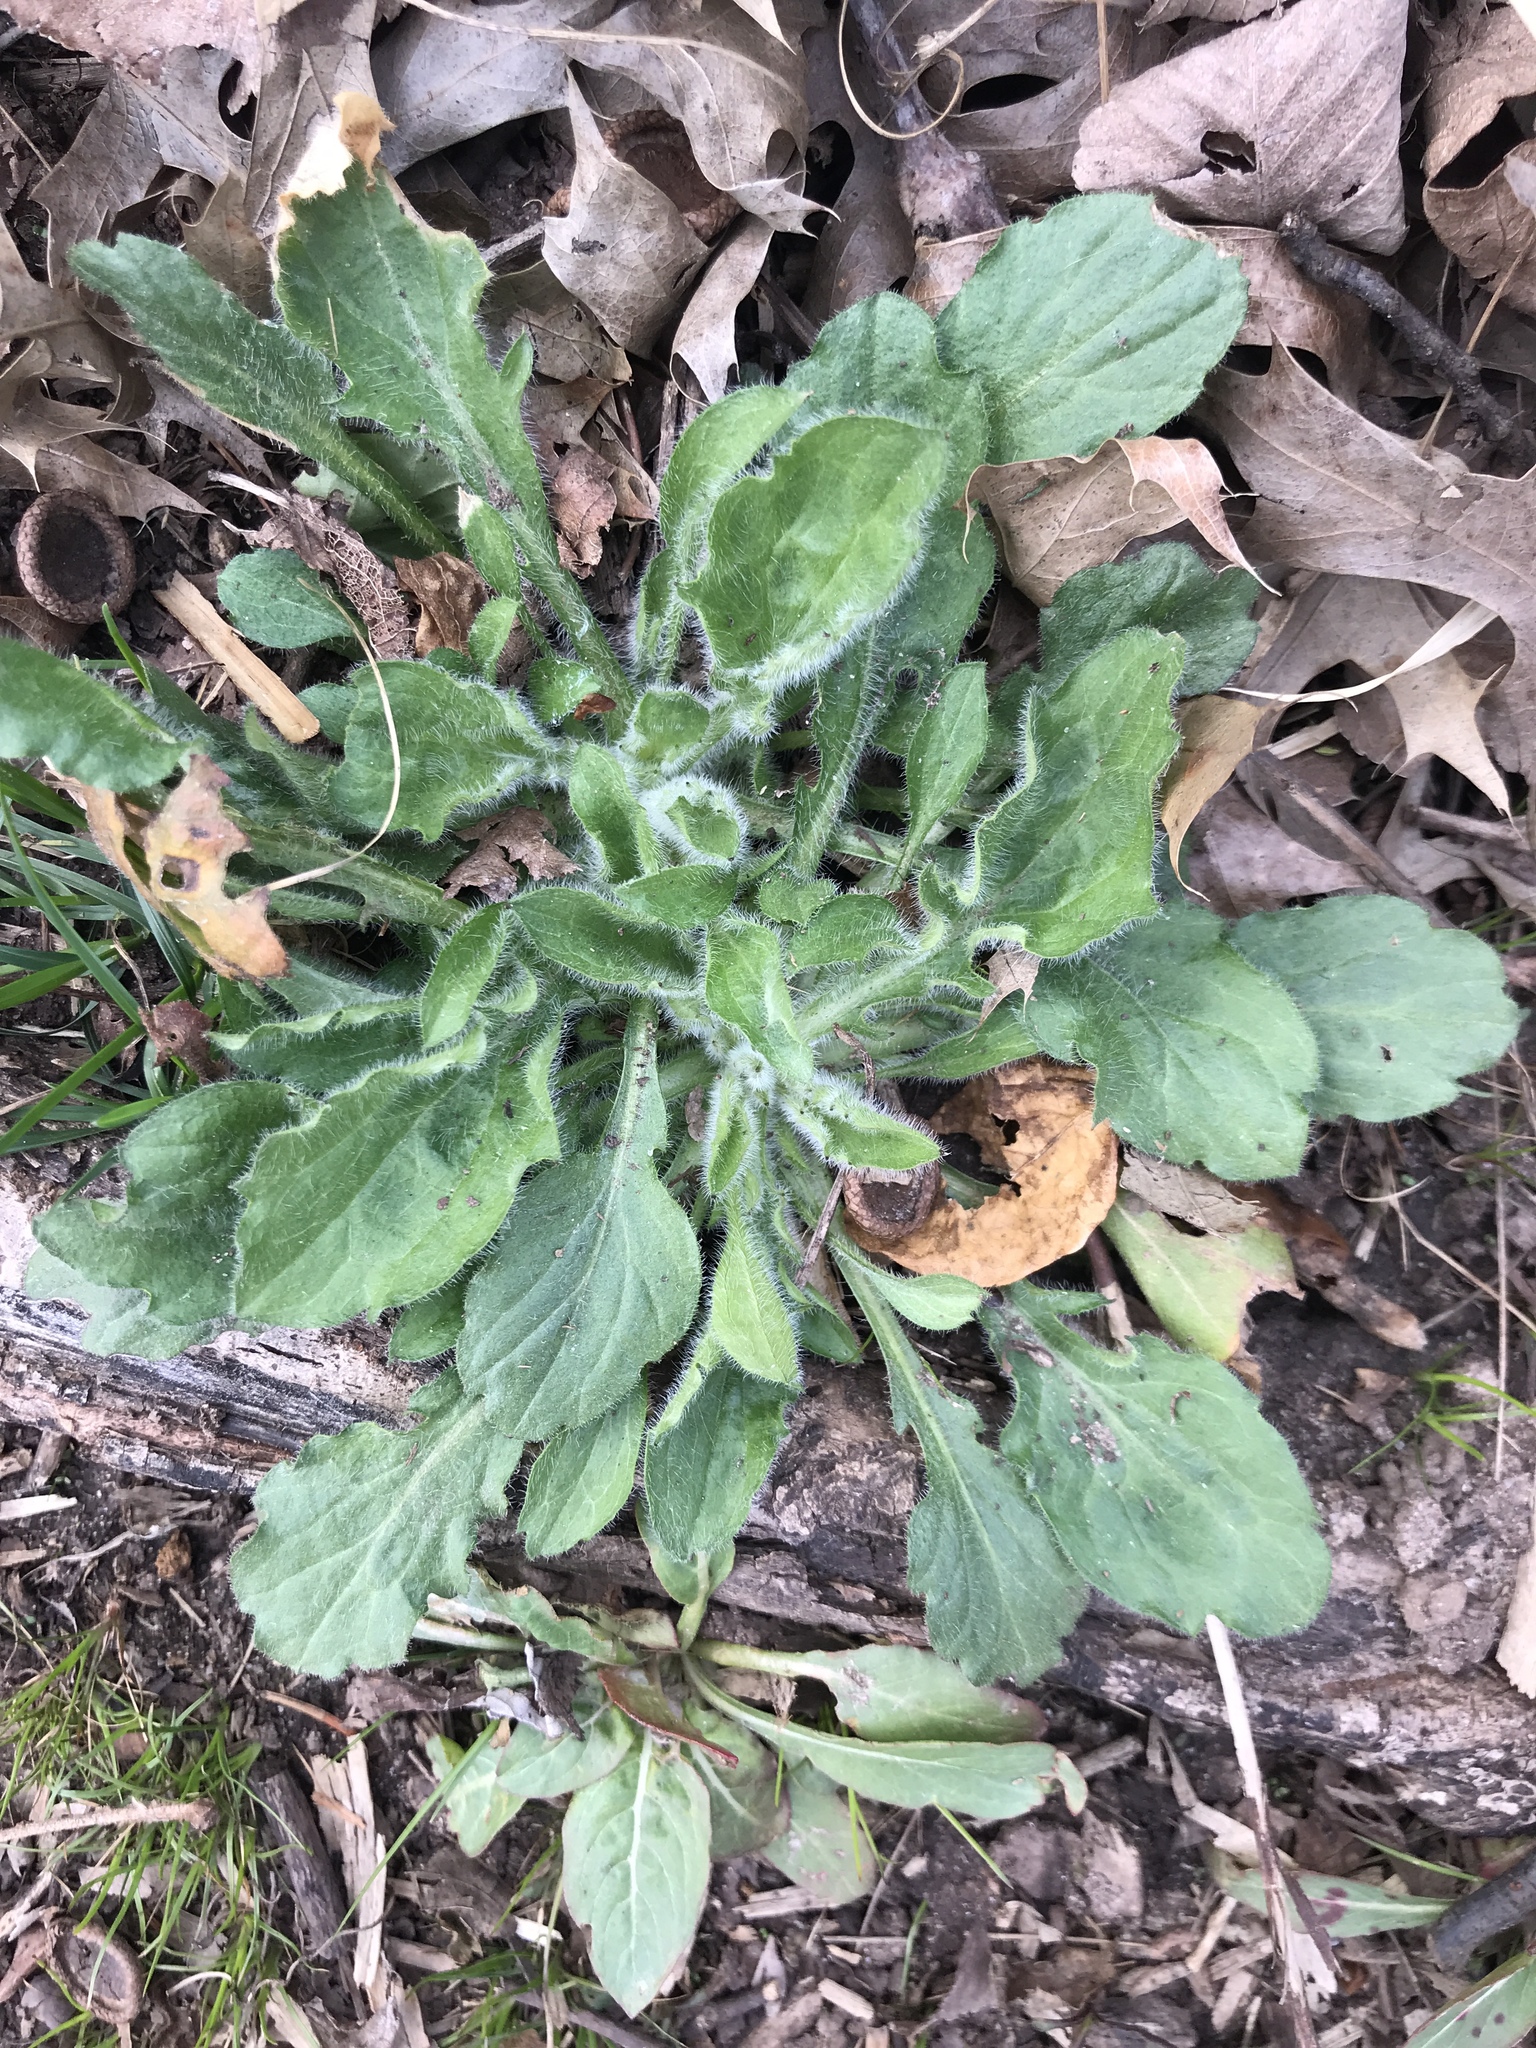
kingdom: Plantae
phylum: Tracheophyta
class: Magnoliopsida
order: Asterales
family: Asteraceae
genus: Erigeron
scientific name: Erigeron canadensis
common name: Canadian fleabane
